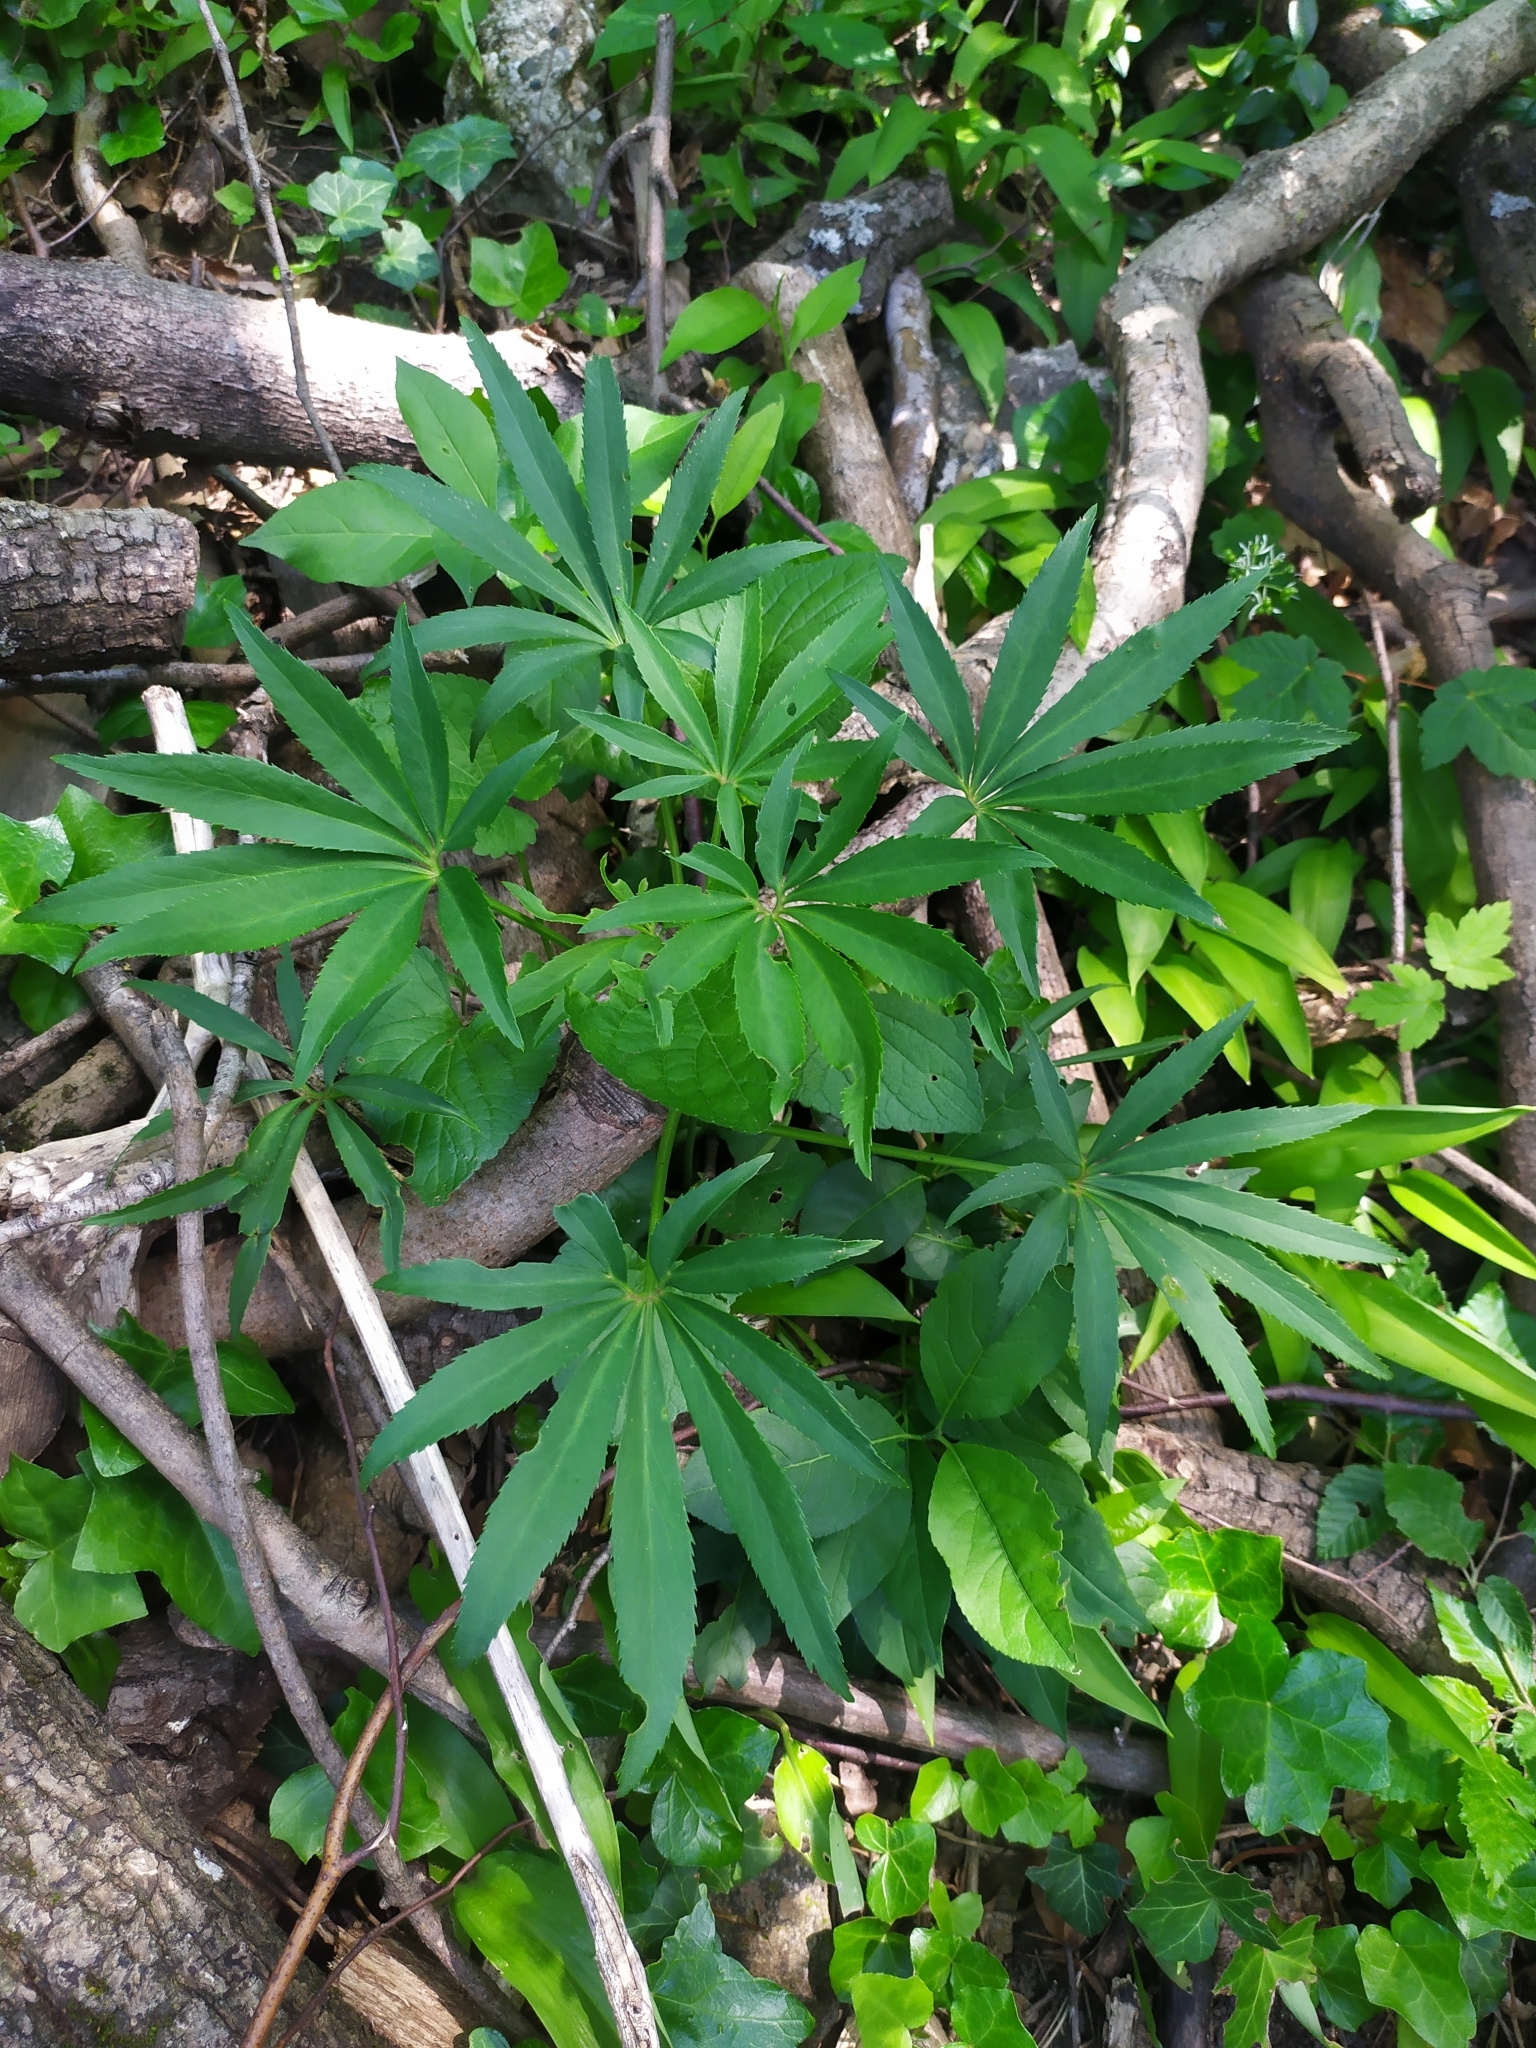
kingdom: Plantae
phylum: Tracheophyta
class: Magnoliopsida
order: Ranunculales
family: Ranunculaceae
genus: Helleborus
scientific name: Helleborus foetidus
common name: Stinking hellebore
